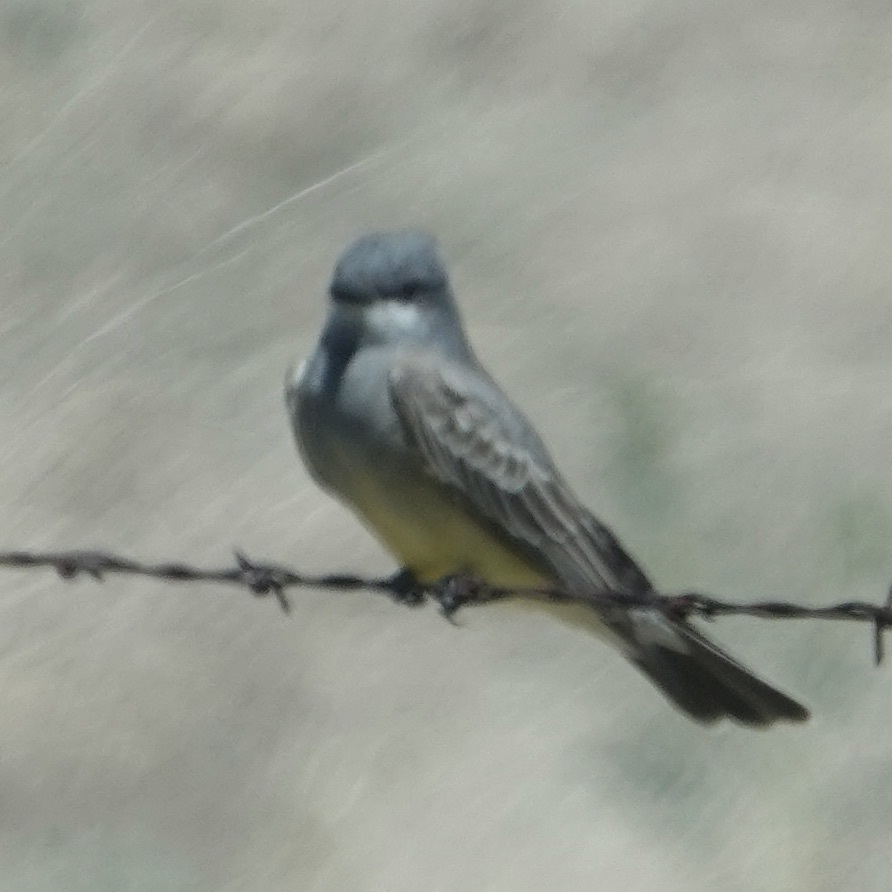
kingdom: Animalia
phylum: Chordata
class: Aves
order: Passeriformes
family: Tyrannidae
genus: Tyrannus
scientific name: Tyrannus vociferans
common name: Cassin's kingbird
